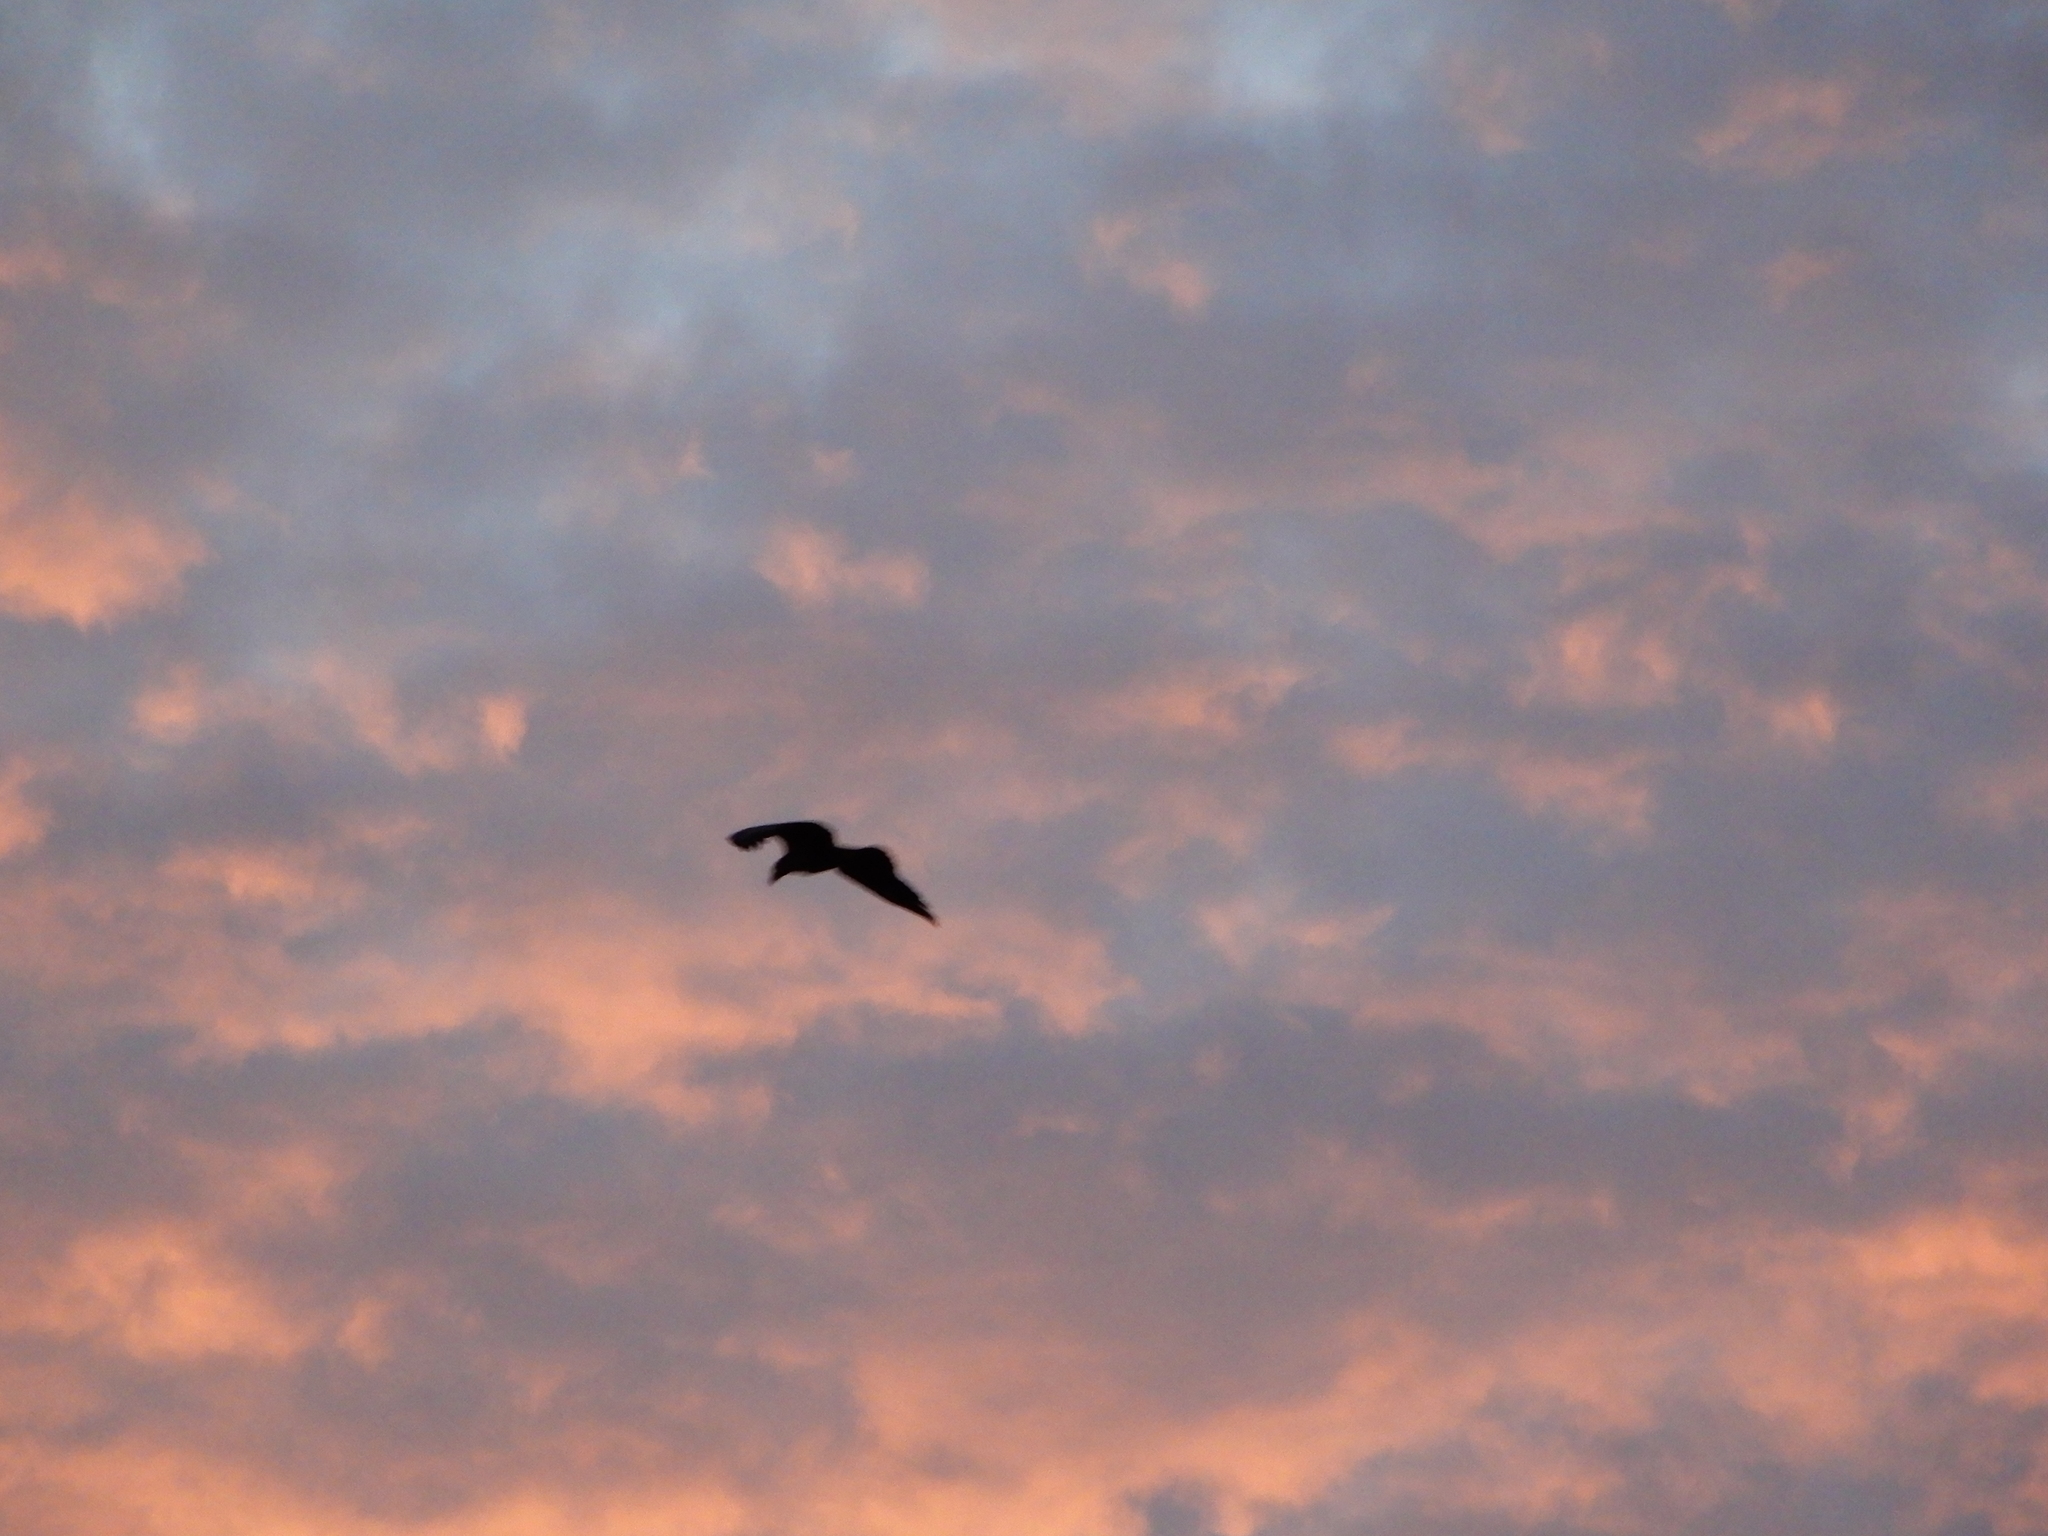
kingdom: Animalia
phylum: Chordata
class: Aves
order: Accipitriformes
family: Accipitridae
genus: Haliaeetus
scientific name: Haliaeetus leucocephalus
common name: Bald eagle
